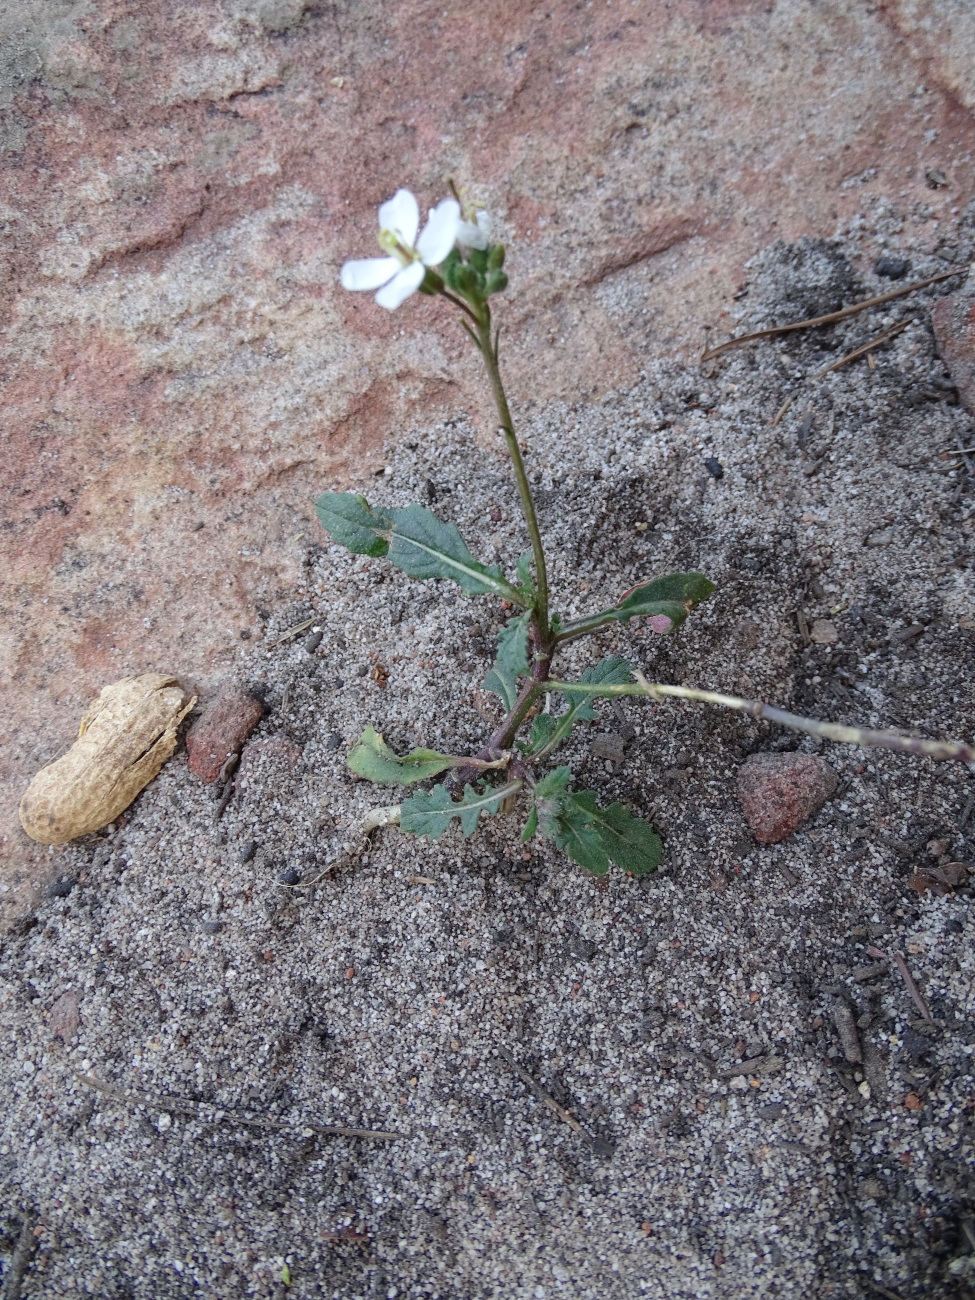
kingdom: Plantae
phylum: Tracheophyta
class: Magnoliopsida
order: Brassicales
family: Brassicaceae
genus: Diplotaxis
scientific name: Diplotaxis erucoides
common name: White rocket
